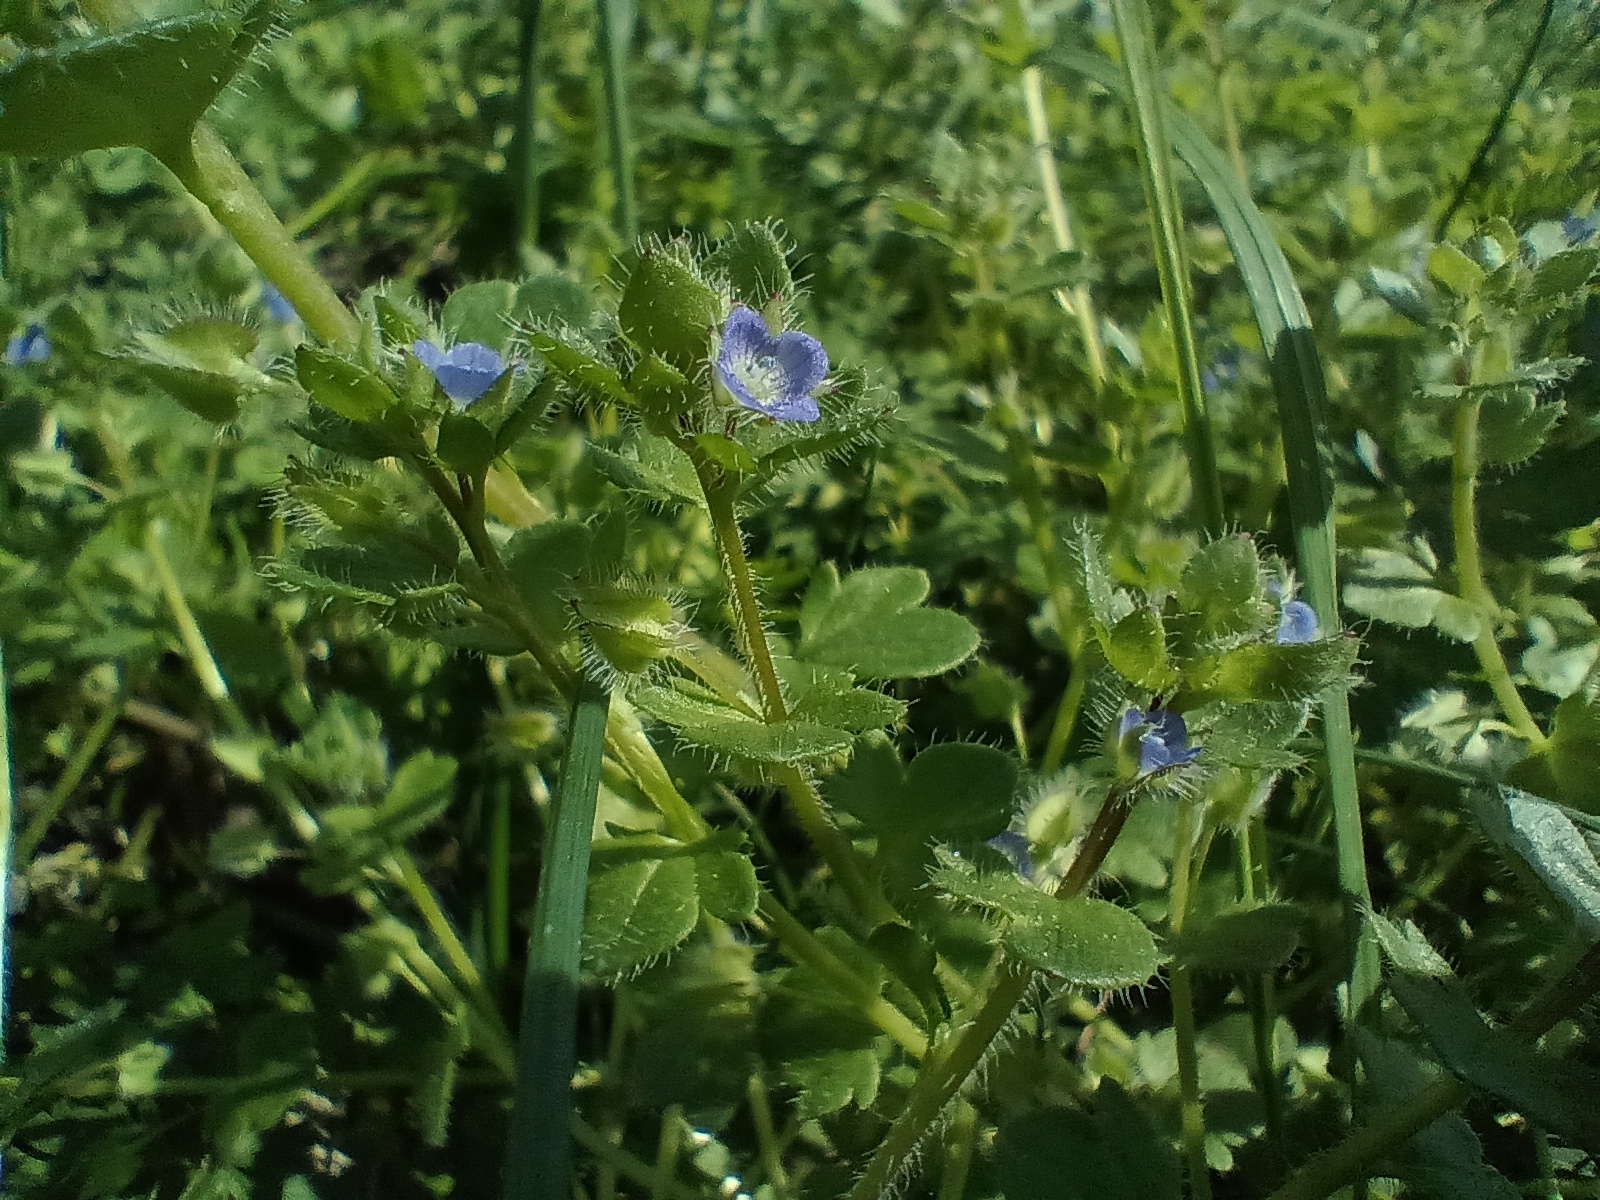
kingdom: Plantae
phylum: Tracheophyta
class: Magnoliopsida
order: Lamiales
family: Plantaginaceae
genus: Veronica
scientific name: Veronica hederifolia
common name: Ivy-leaved speedwell
